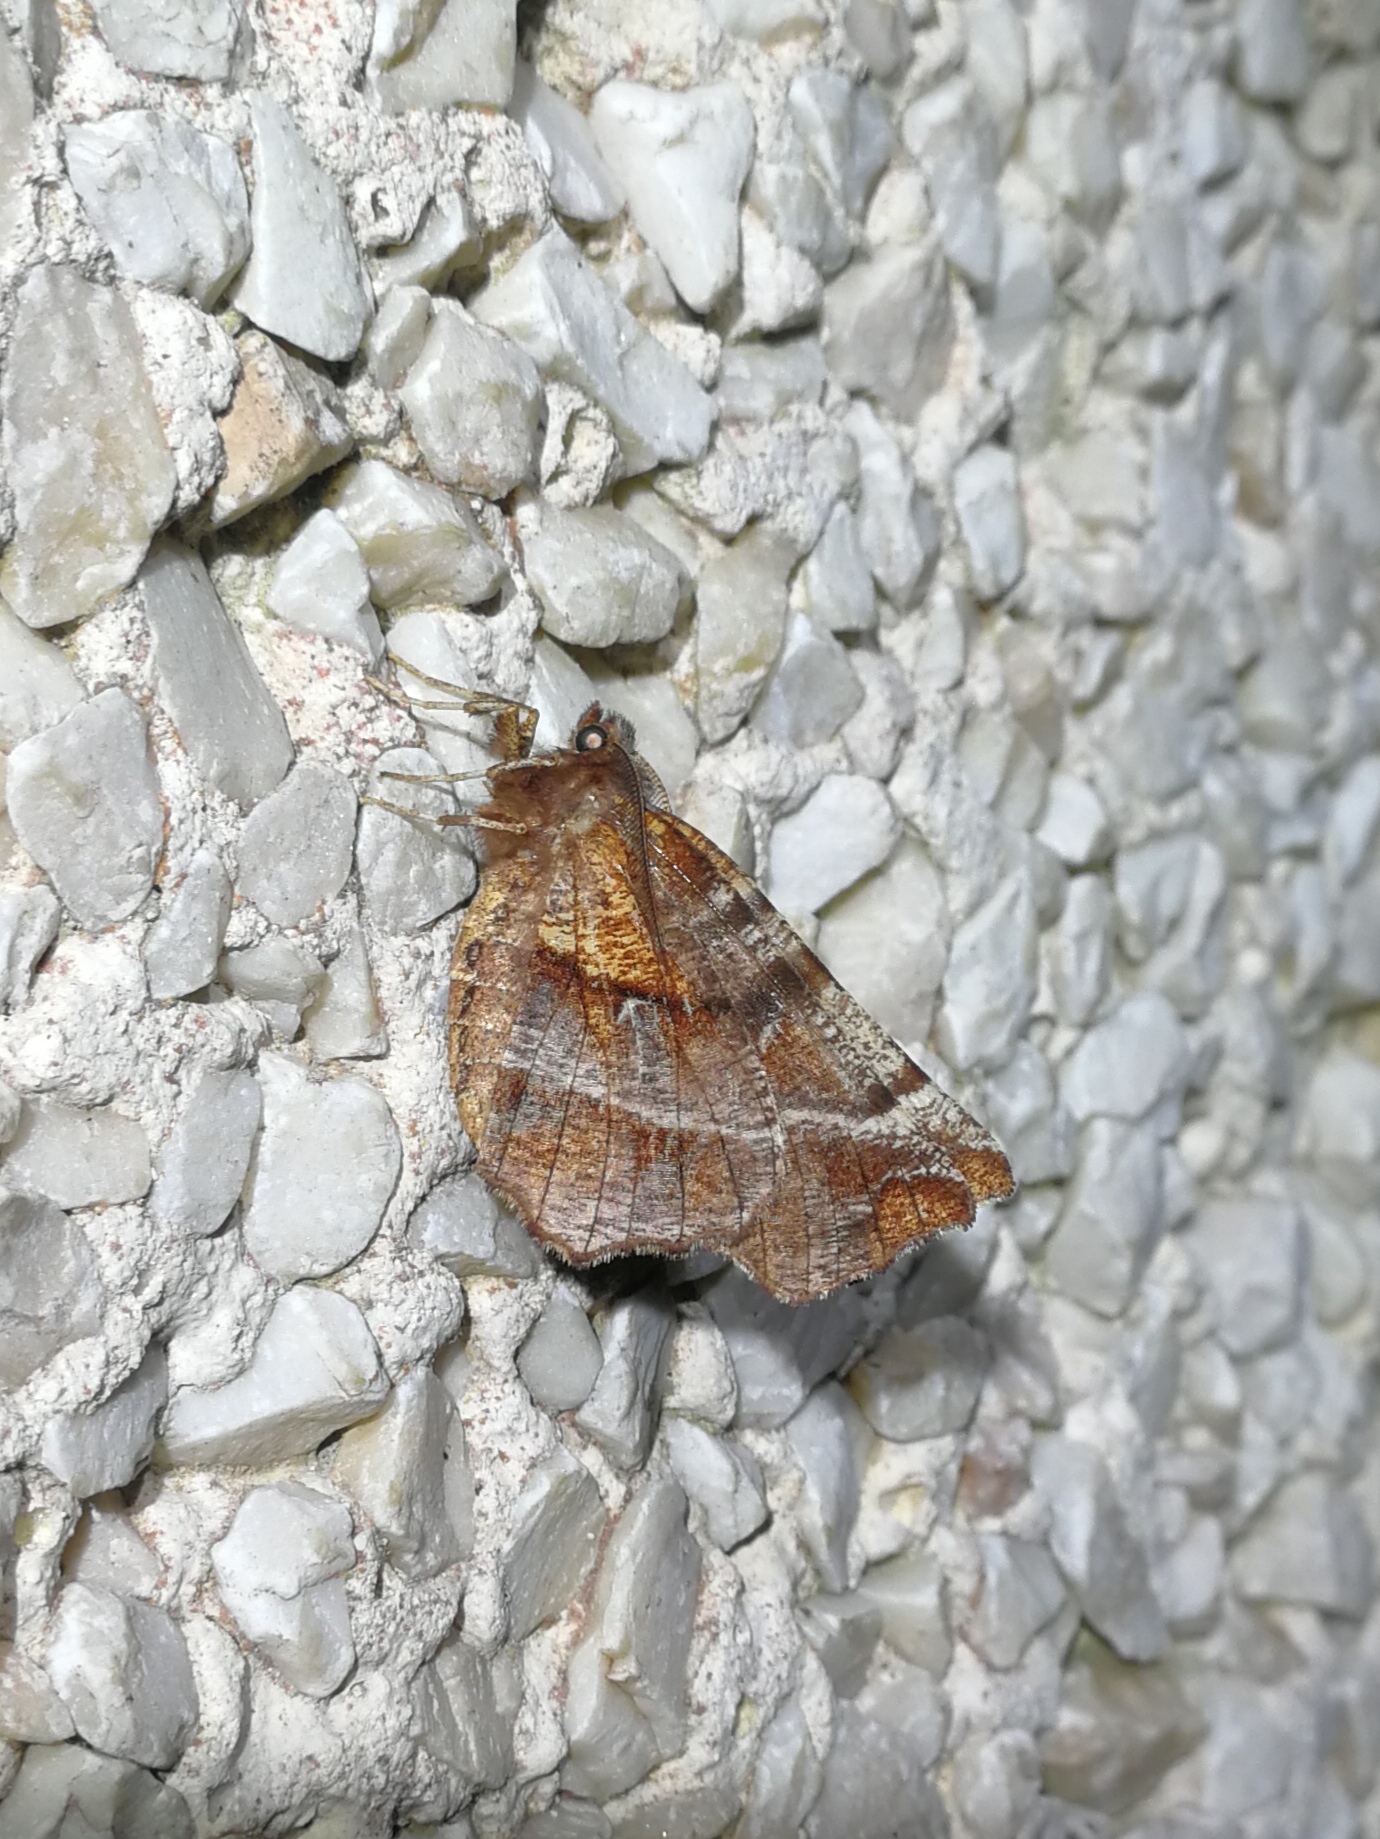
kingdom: Animalia
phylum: Arthropoda
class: Insecta
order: Lepidoptera
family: Geometridae
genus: Selenia
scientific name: Selenia dentaria
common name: Early thorn
